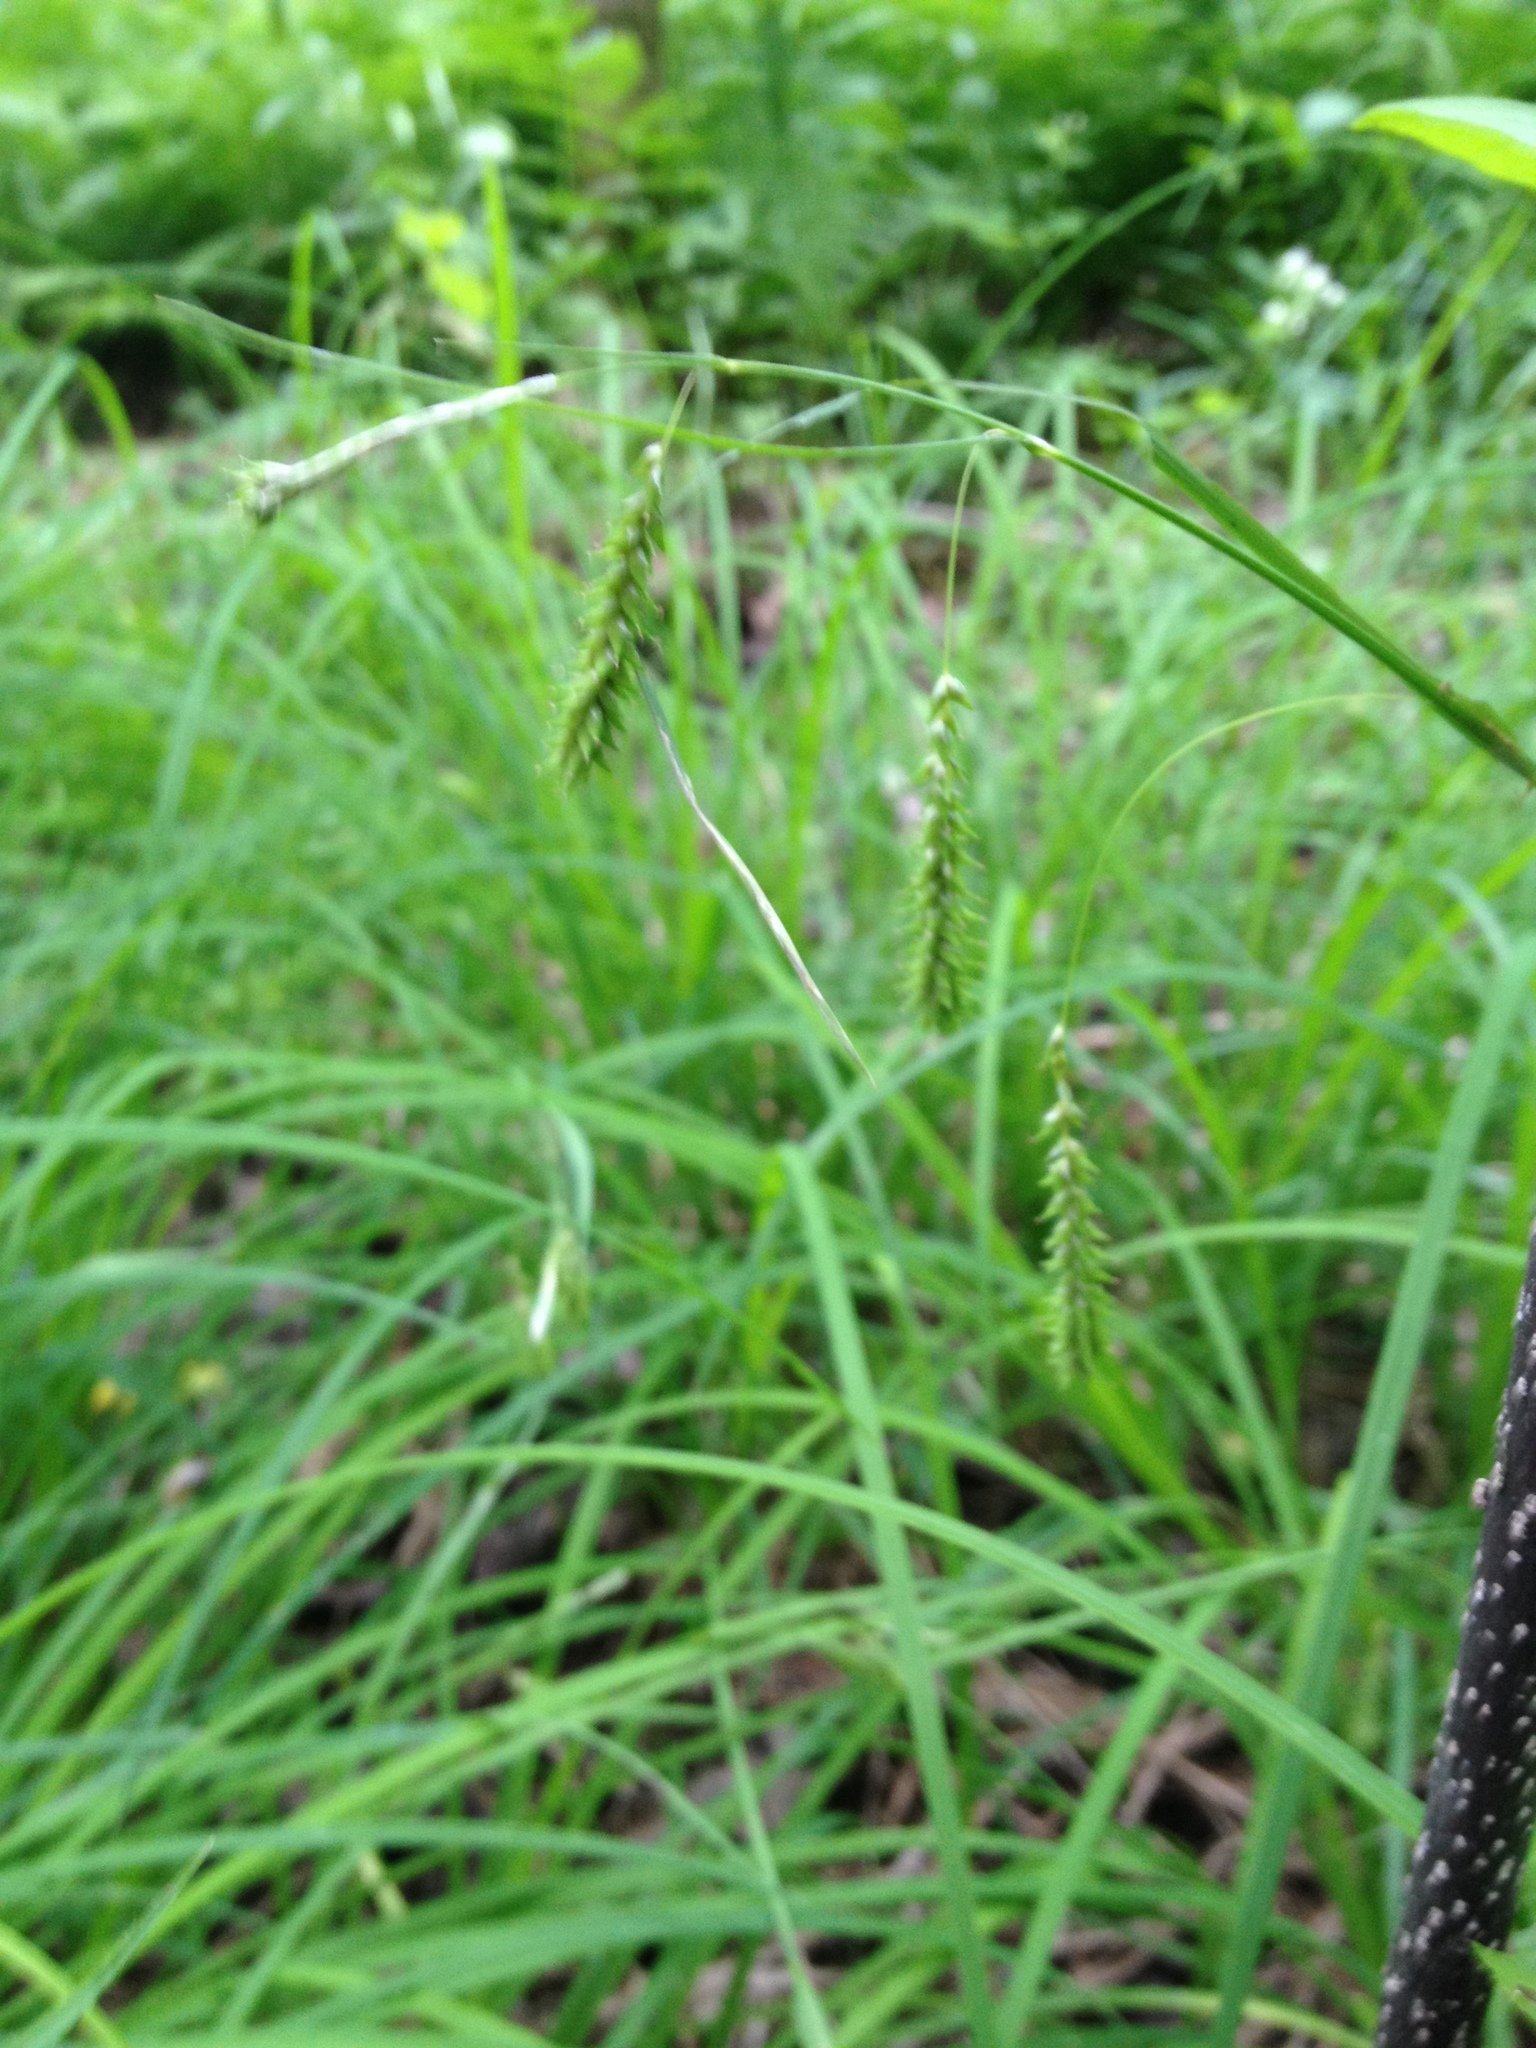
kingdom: Plantae
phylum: Tracheophyta
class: Liliopsida
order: Poales
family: Cyperaceae
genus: Carex
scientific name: Carex prasina
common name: Drooping sedge
